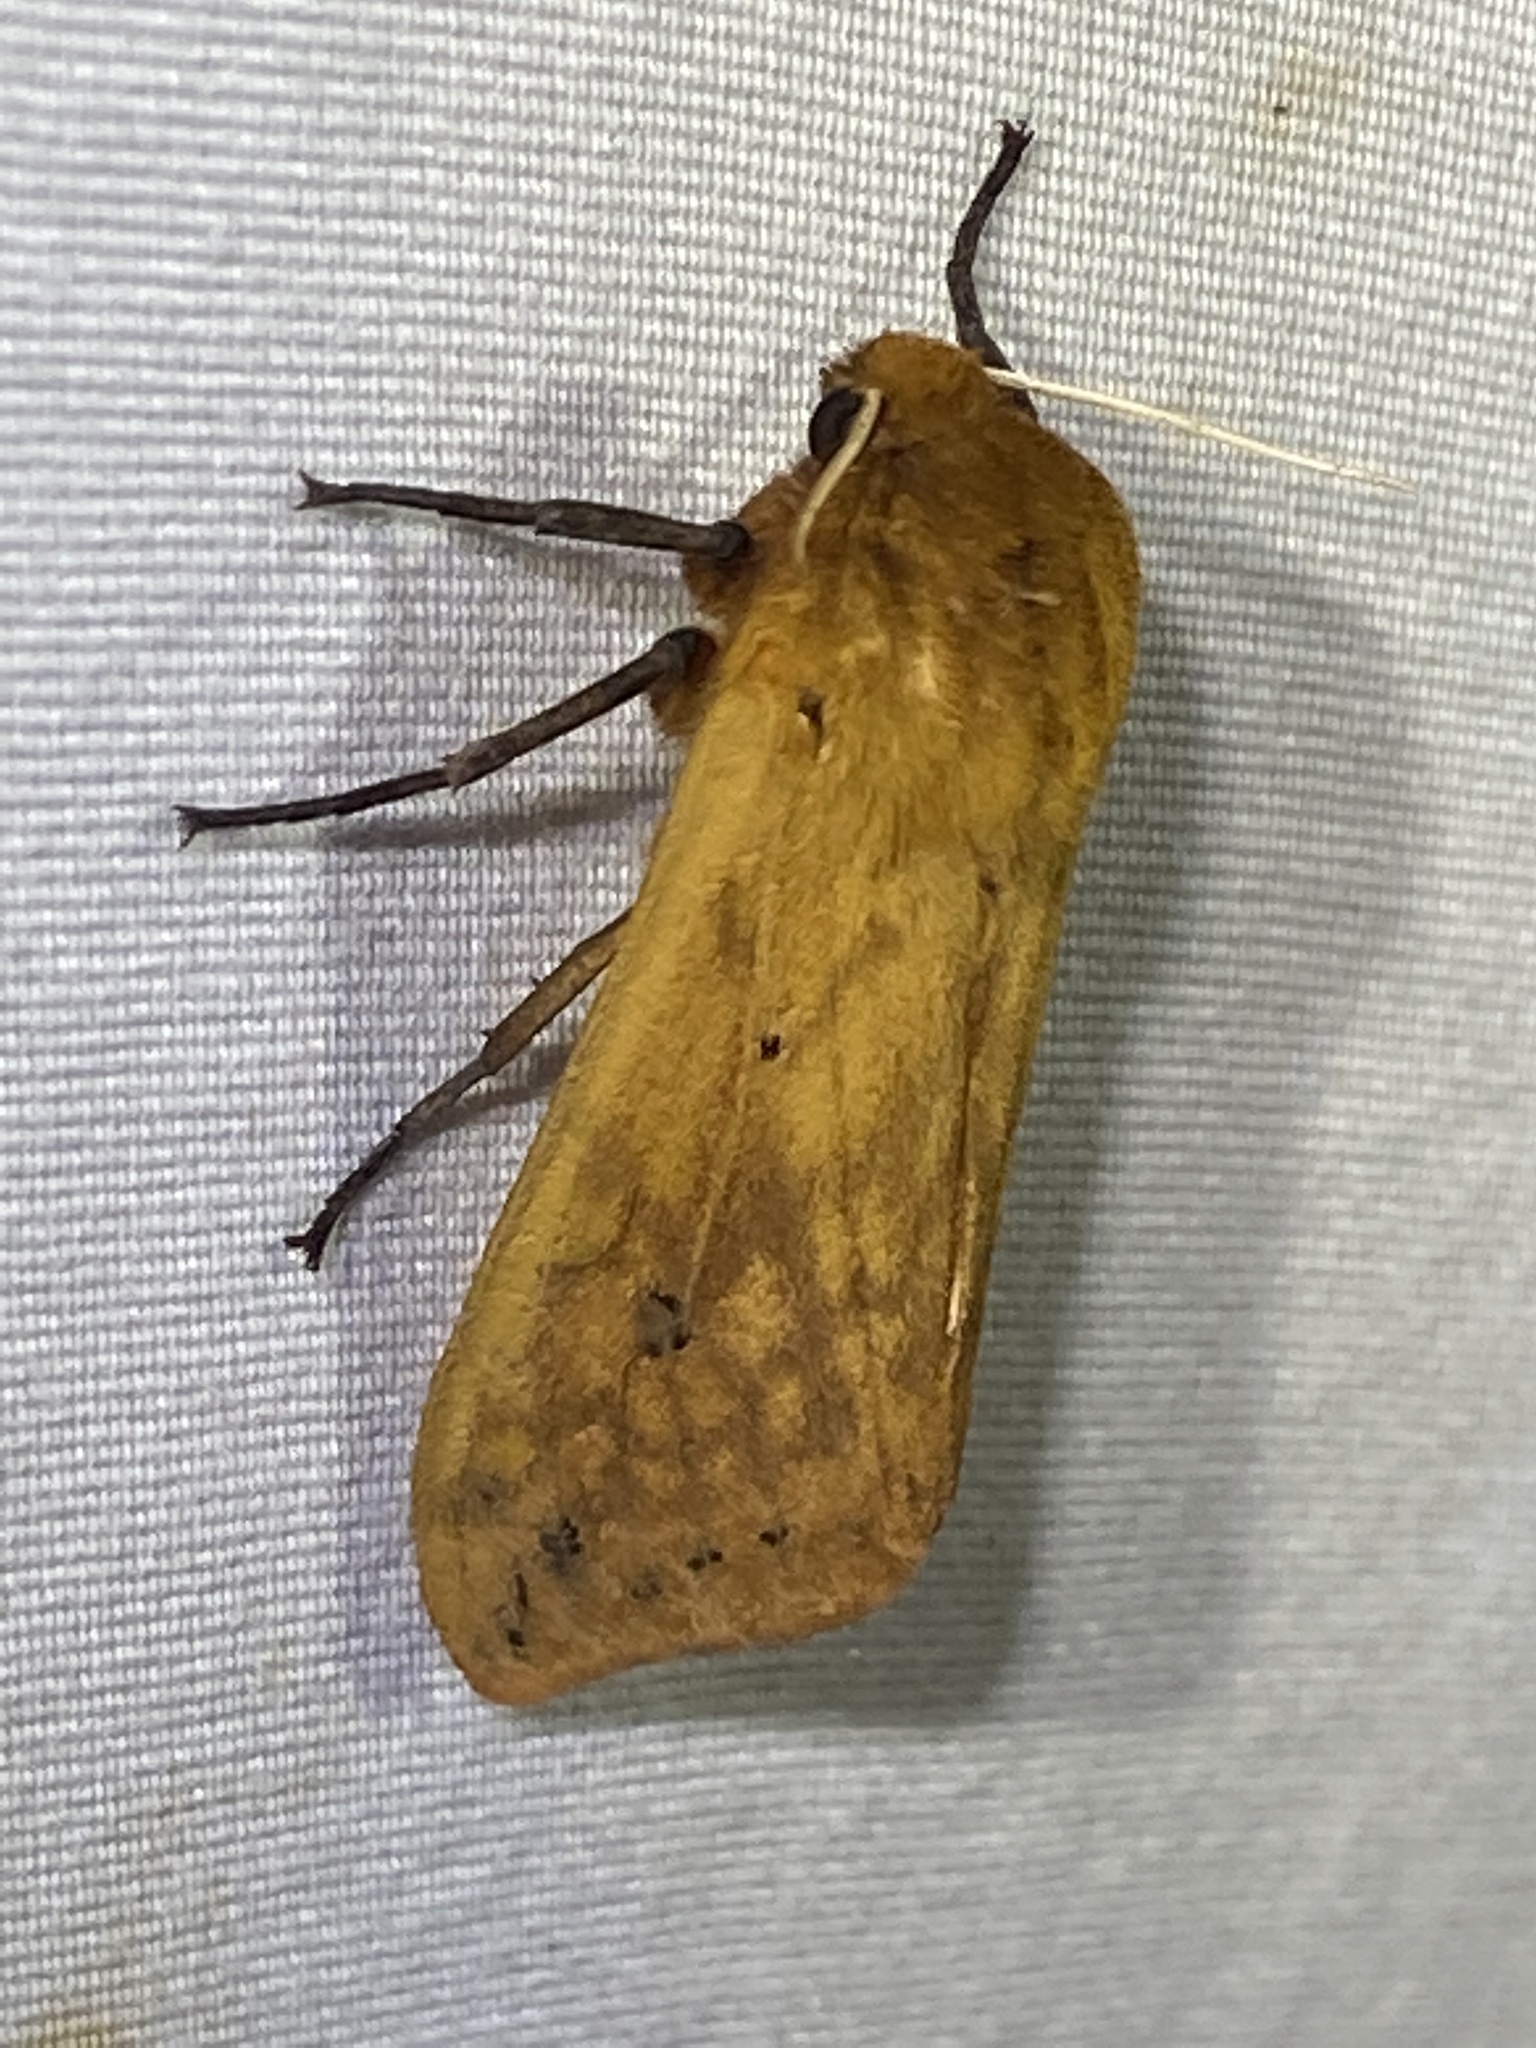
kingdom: Animalia
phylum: Arthropoda
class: Insecta
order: Lepidoptera
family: Erebidae
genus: Pyrrharctia
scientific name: Pyrrharctia isabella
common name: Isabella tiger moth
